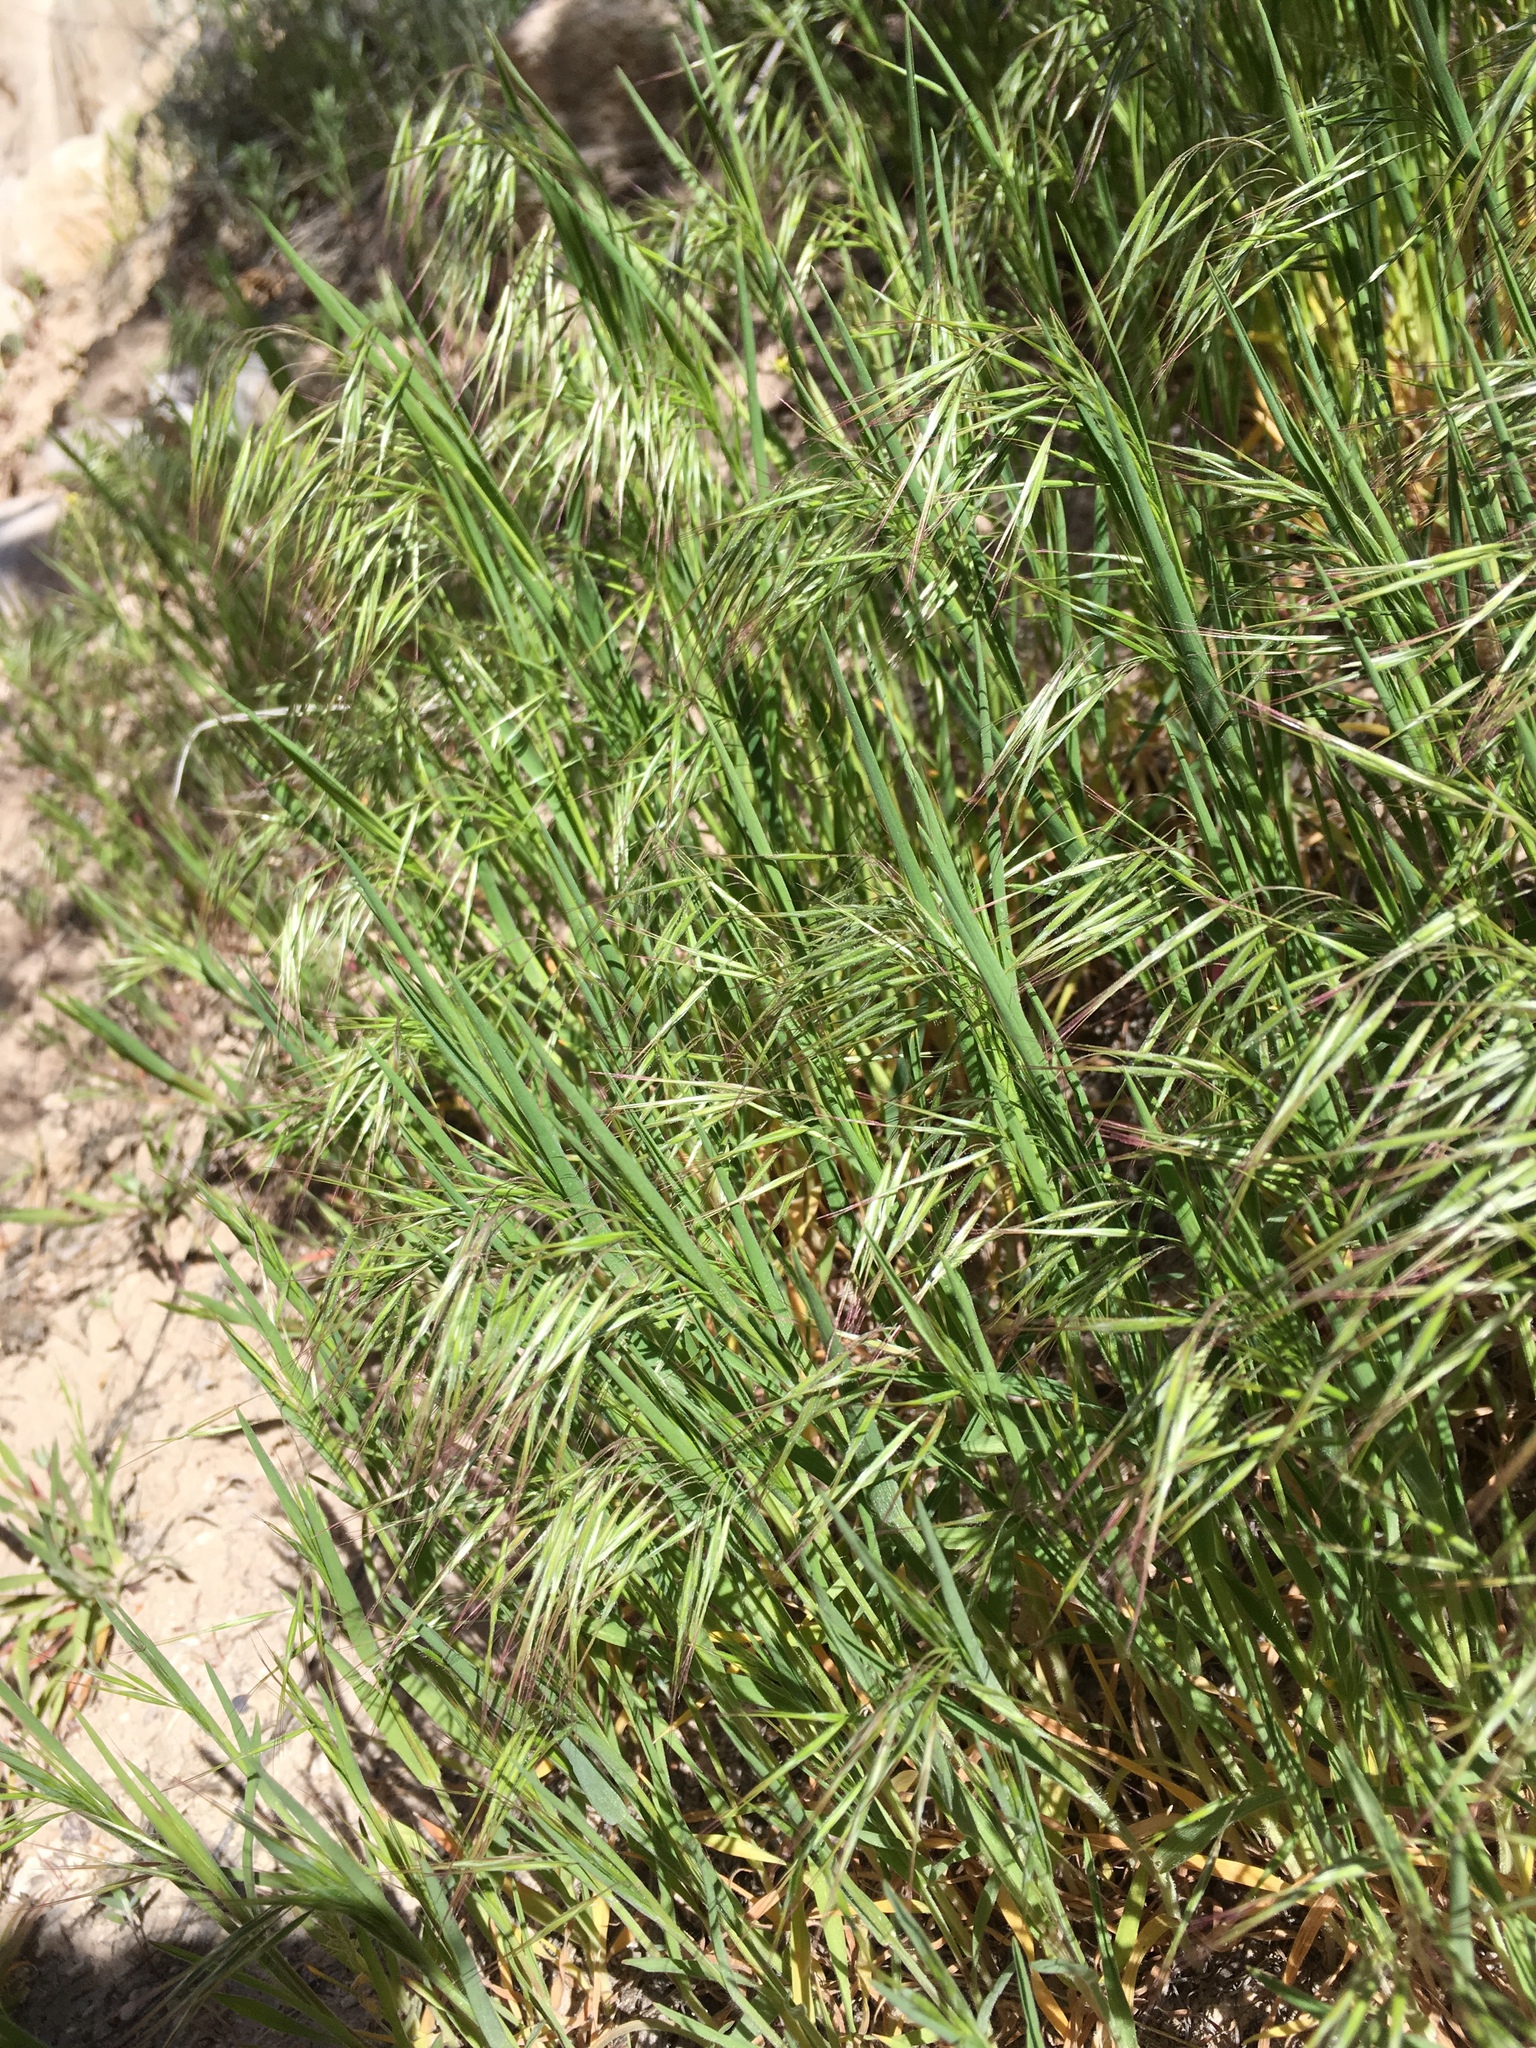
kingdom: Plantae
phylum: Tracheophyta
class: Liliopsida
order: Poales
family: Poaceae
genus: Bromus
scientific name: Bromus tectorum
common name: Cheatgrass
